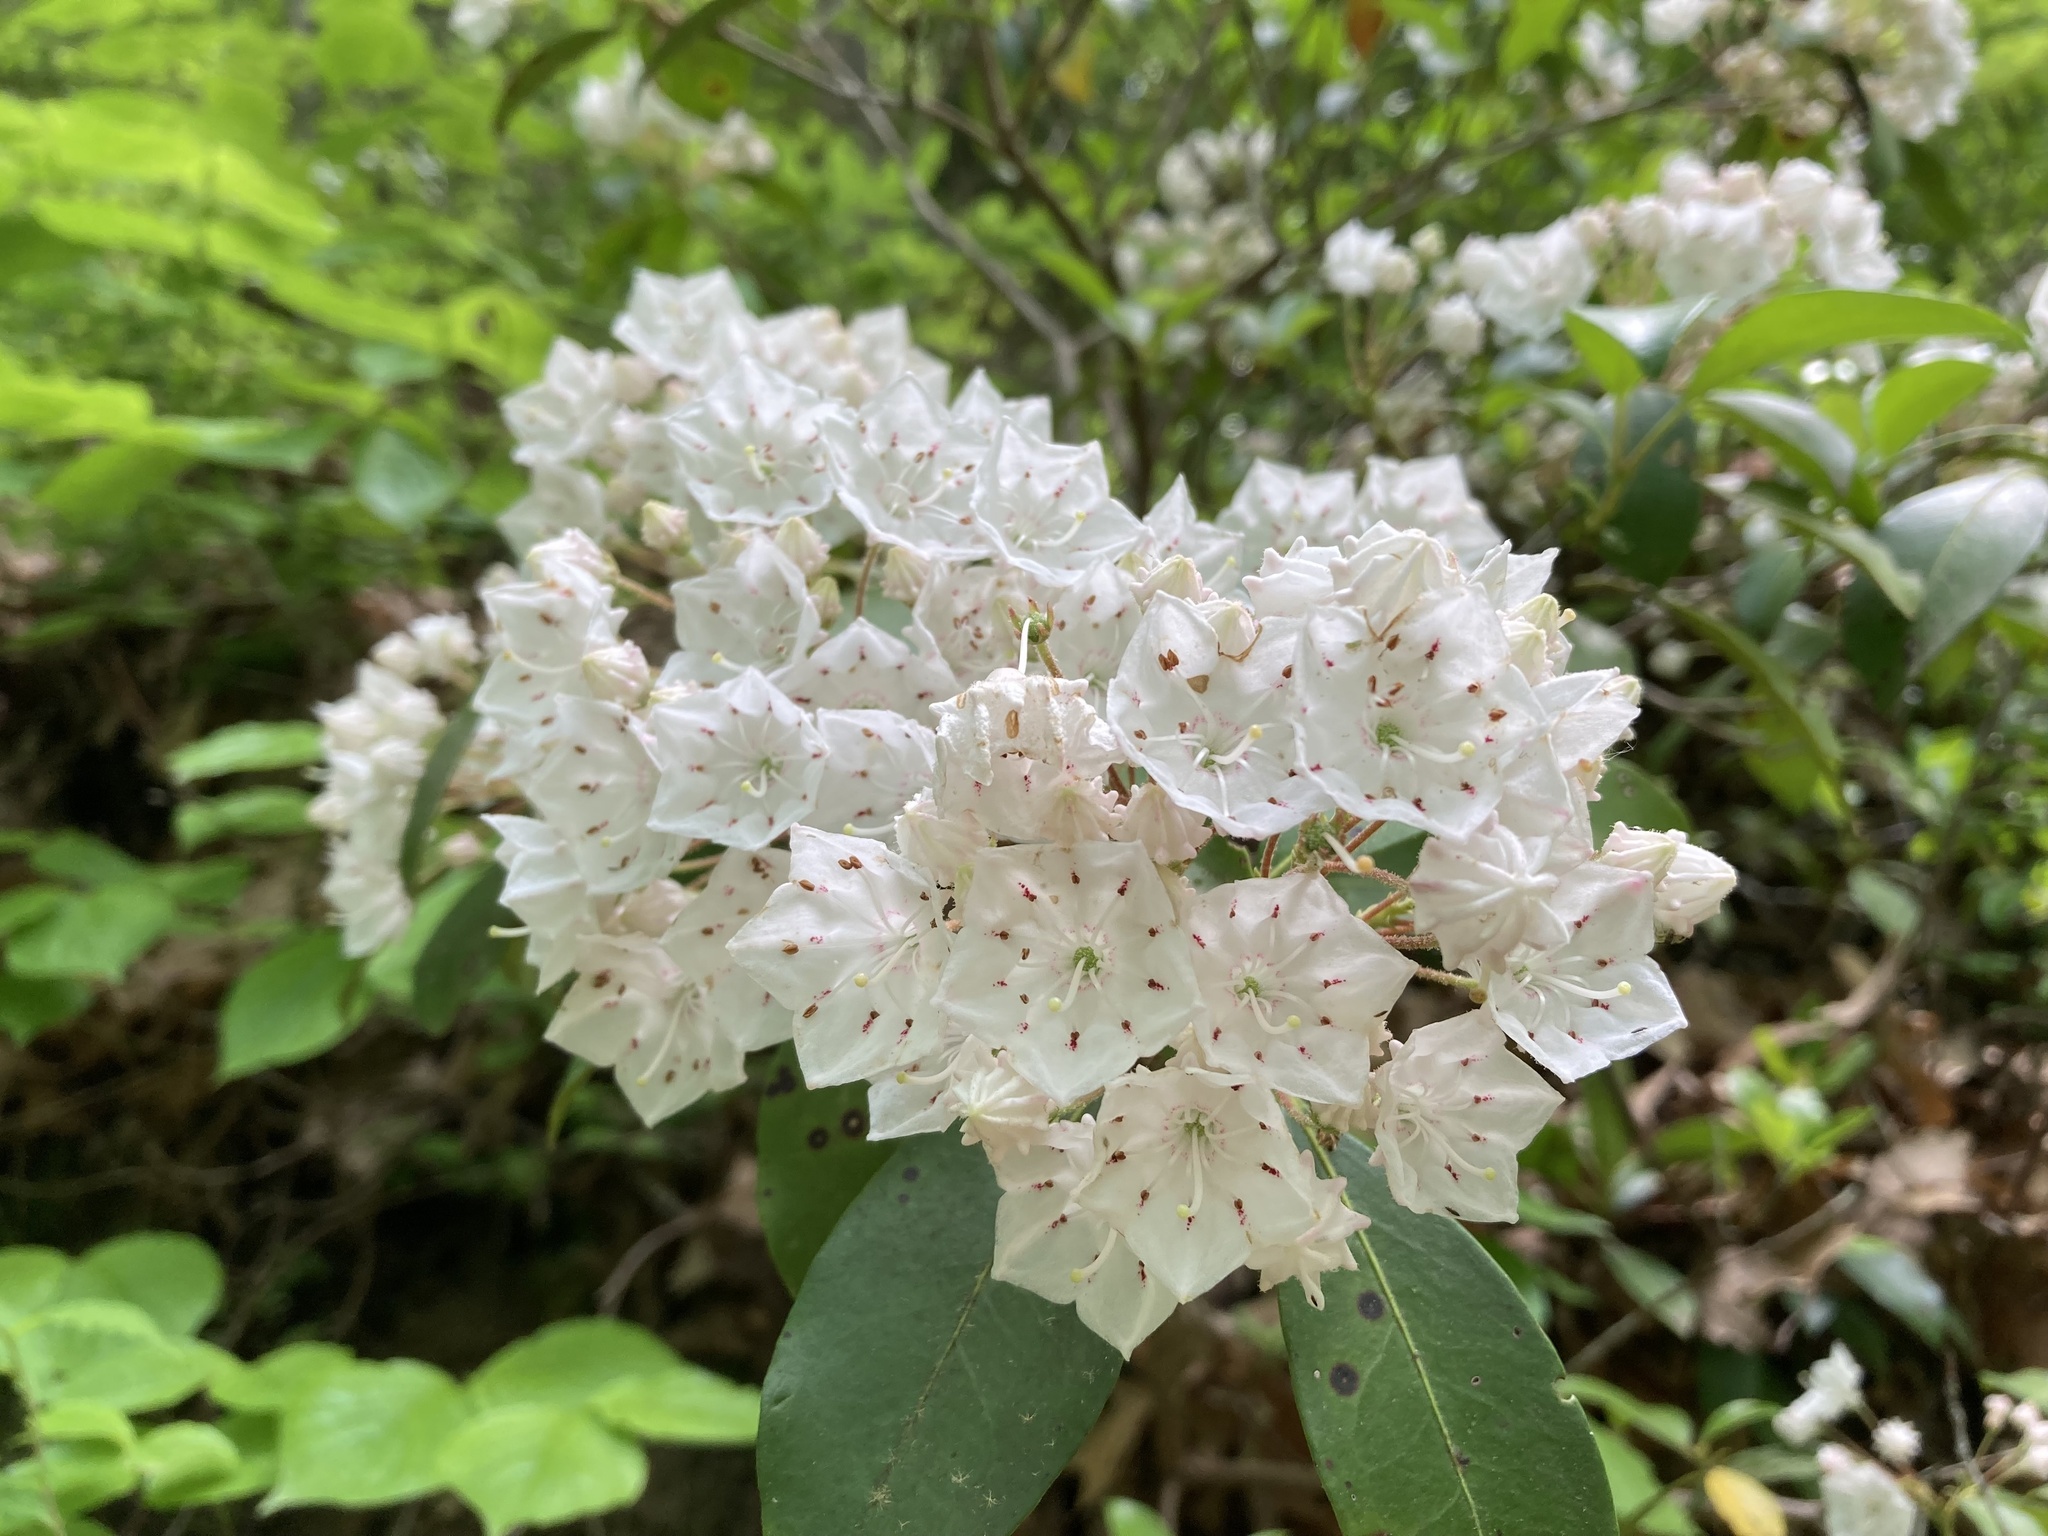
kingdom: Plantae
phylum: Tracheophyta
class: Magnoliopsida
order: Ericales
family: Ericaceae
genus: Kalmia
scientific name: Kalmia latifolia
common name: Mountain-laurel
